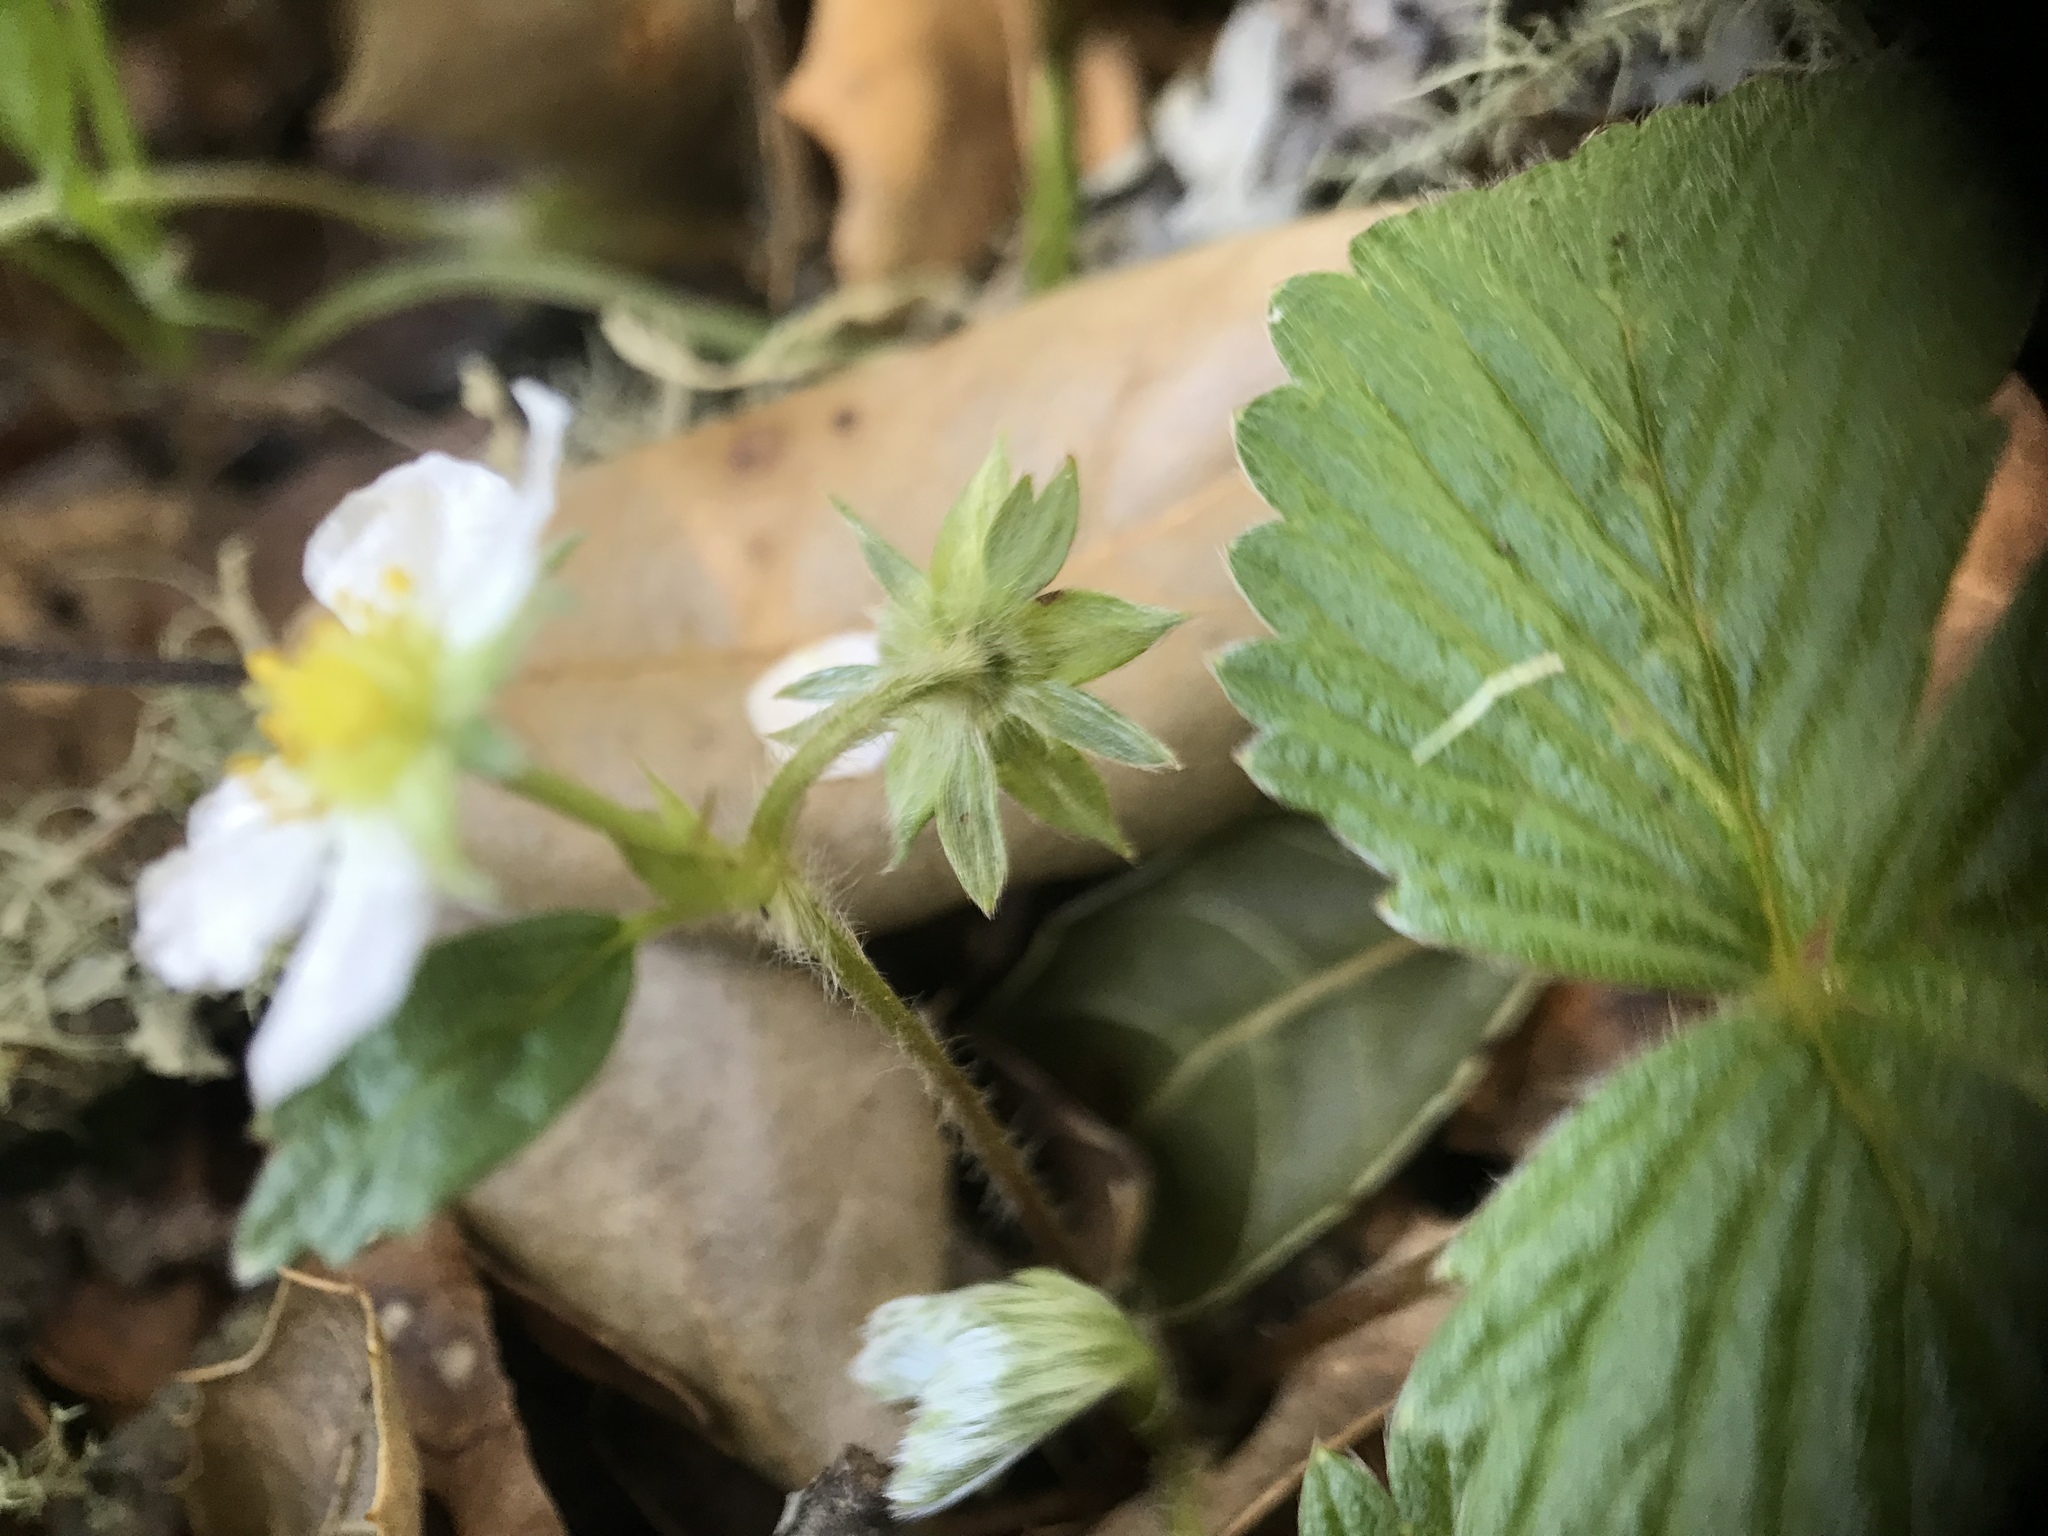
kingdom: Plantae
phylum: Tracheophyta
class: Magnoliopsida
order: Rosales
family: Rosaceae
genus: Fragaria
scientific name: Fragaria vesca
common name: Wild strawberry
